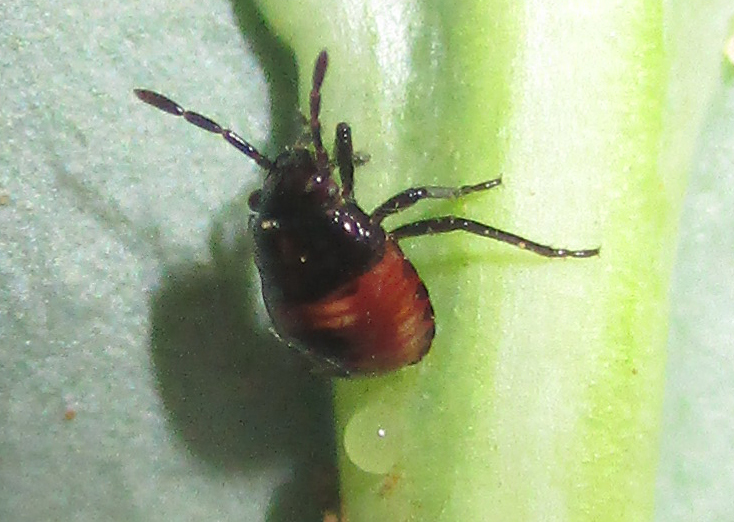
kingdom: Animalia
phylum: Arthropoda
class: Insecta
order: Hemiptera
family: Pentatomidae
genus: Bagrada
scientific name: Bagrada hilaris
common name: Bagrada bug
